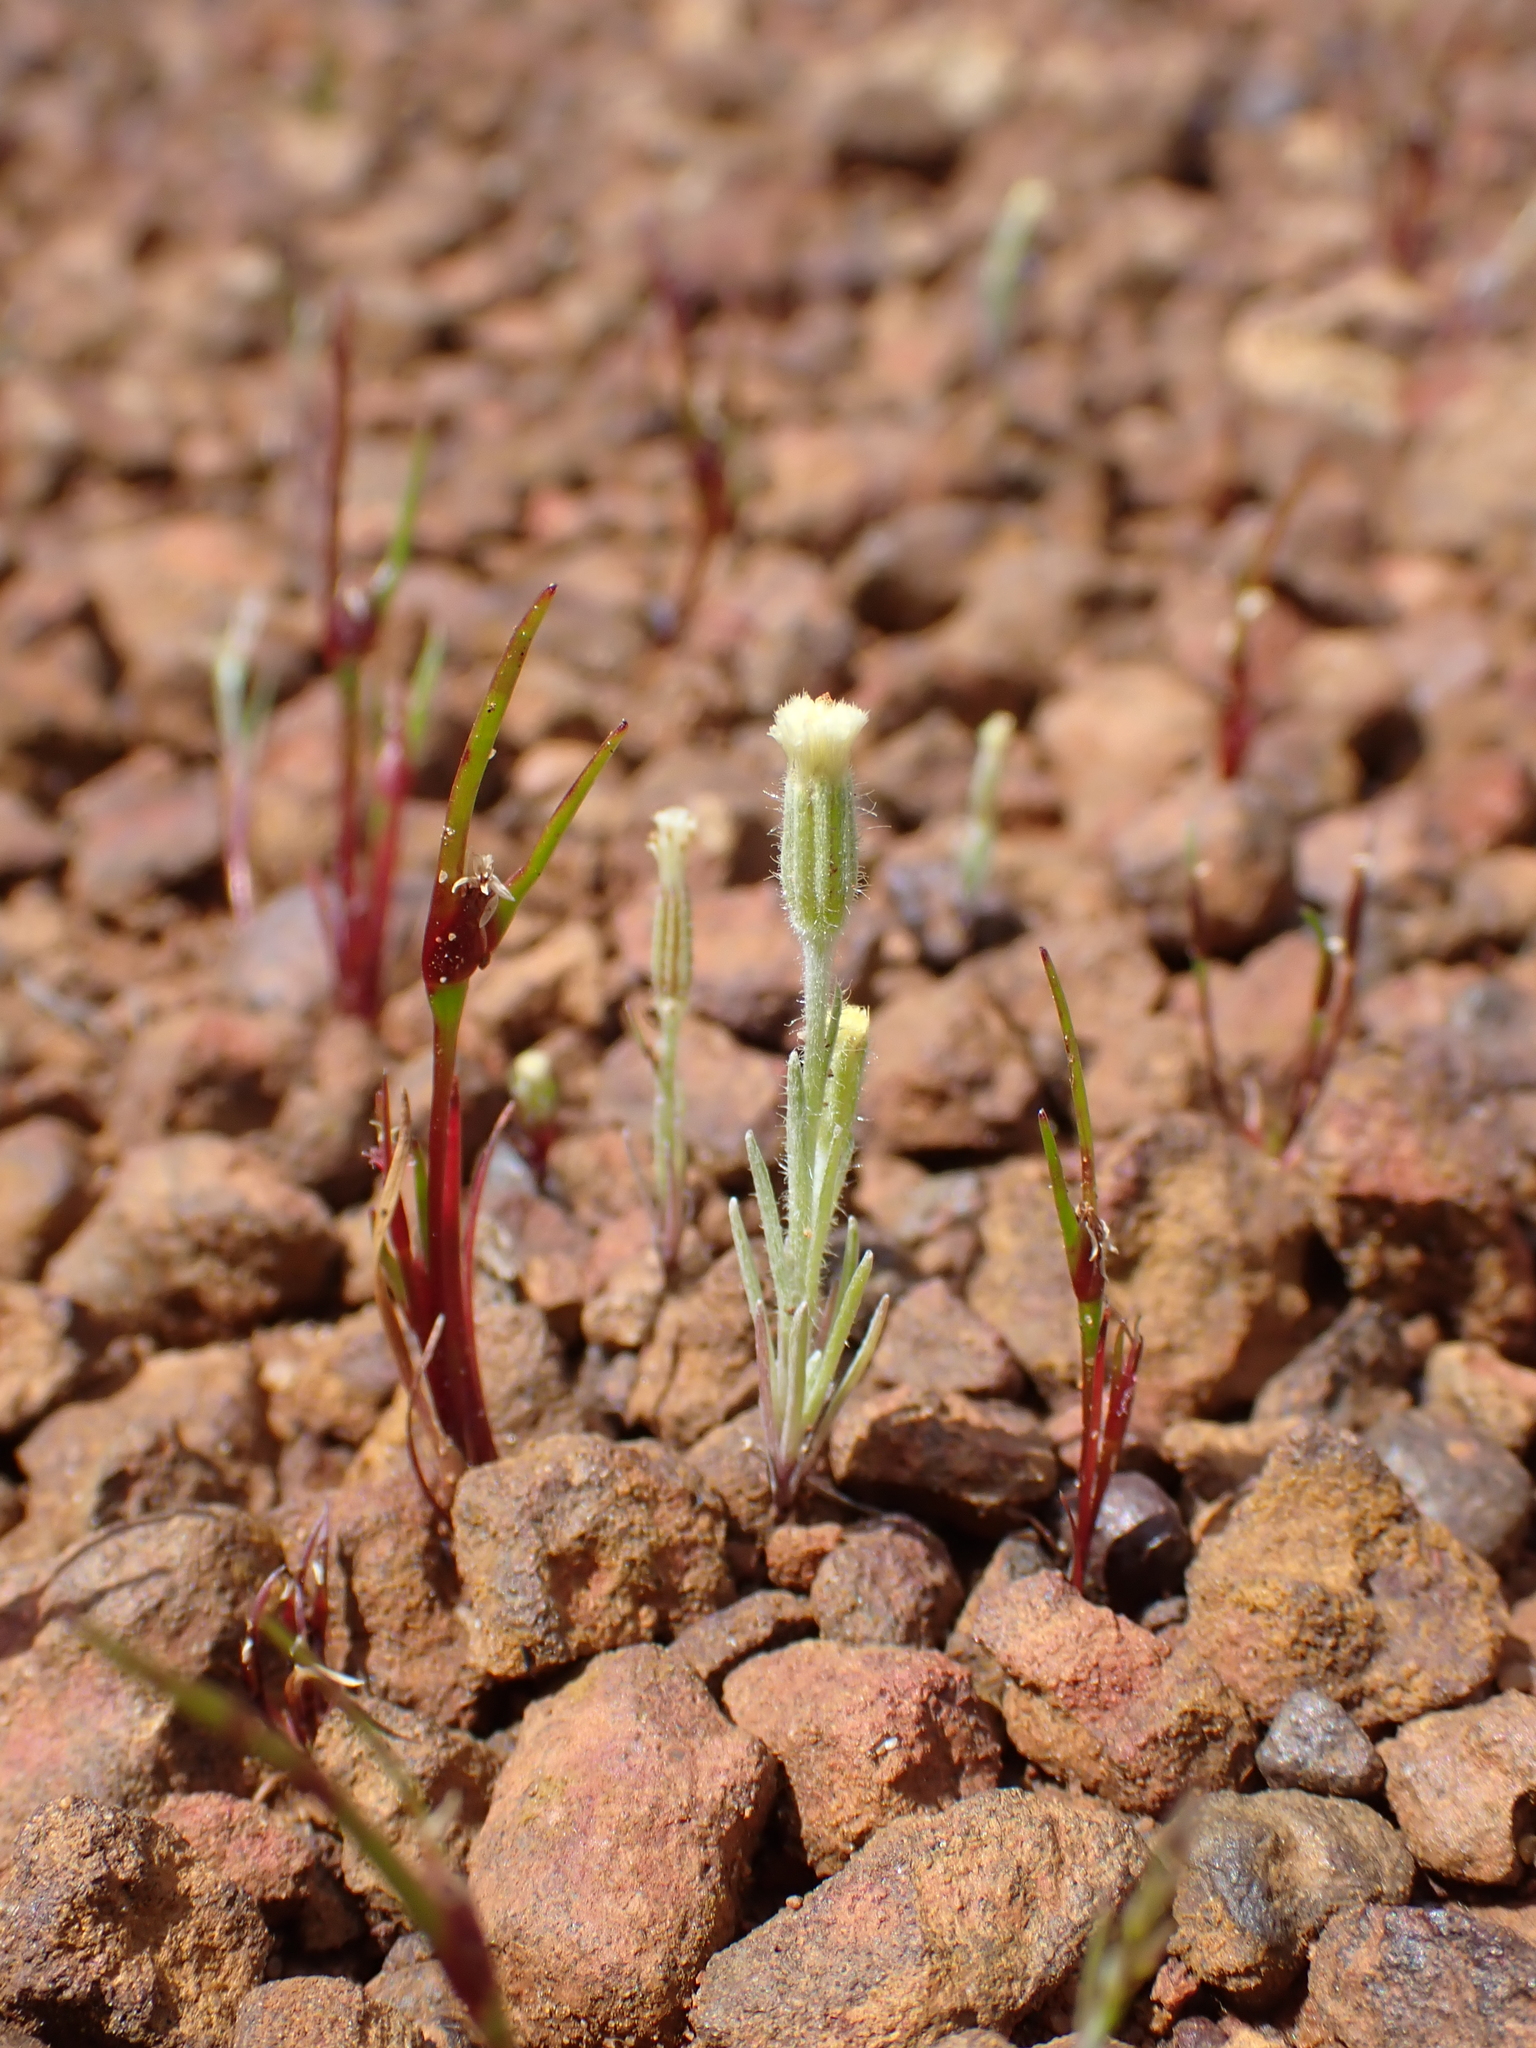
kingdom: Plantae
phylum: Tracheophyta
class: Magnoliopsida
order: Asterales
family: Asteraceae
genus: Millotia
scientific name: Millotia tenuifolia
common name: Soft millotia
